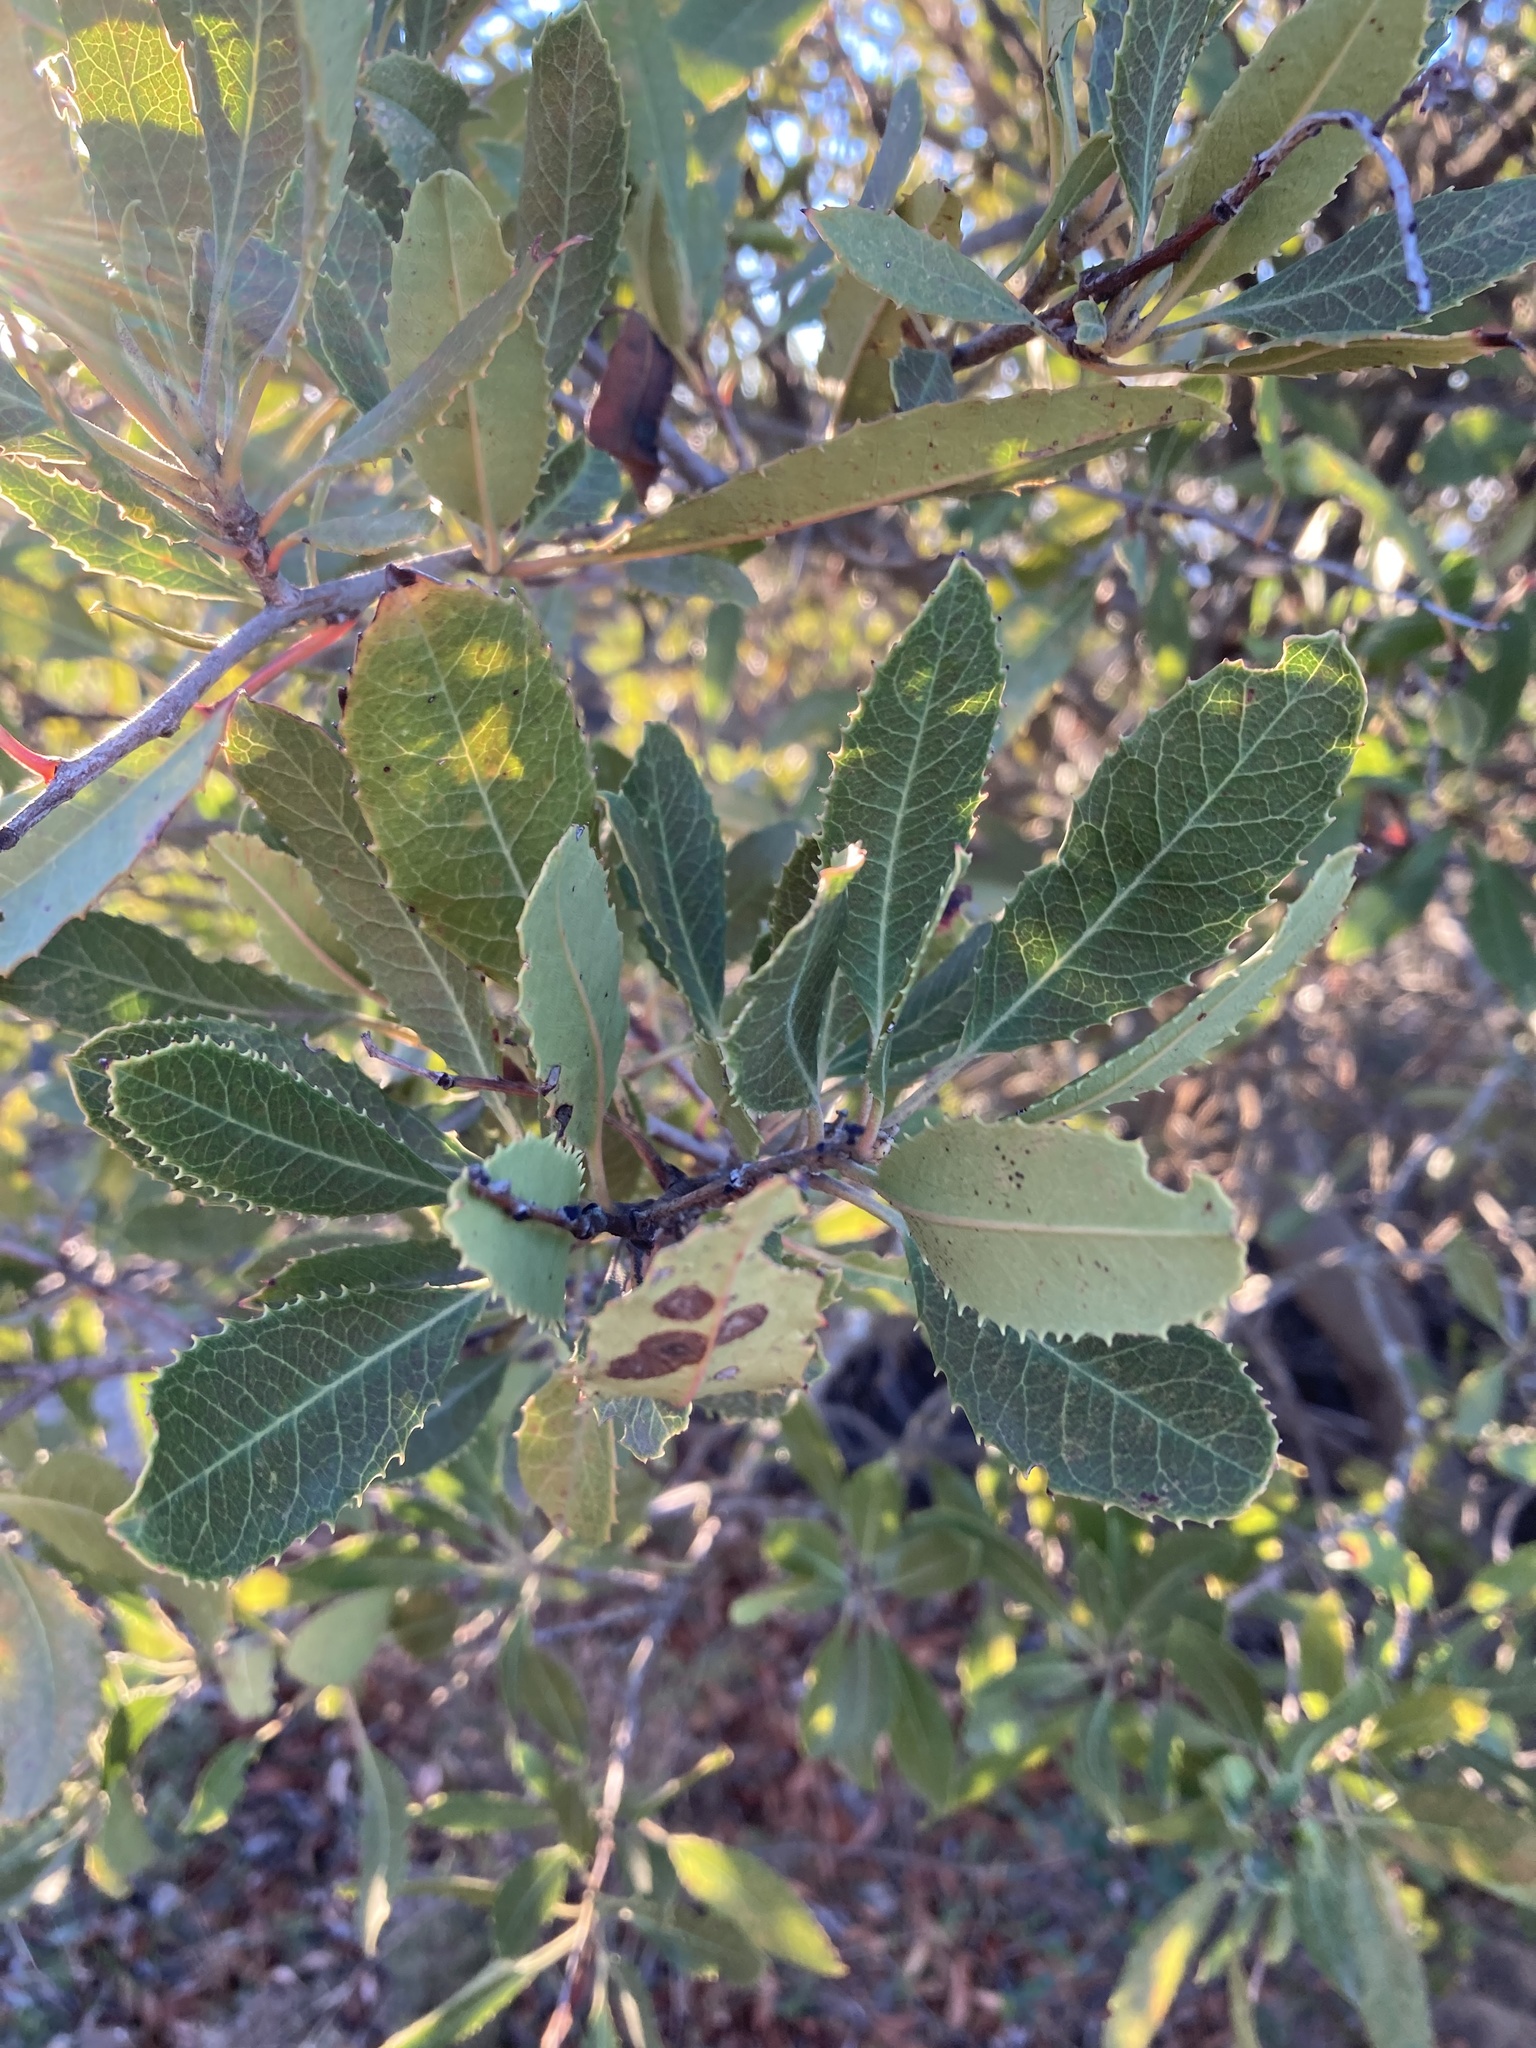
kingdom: Plantae
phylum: Tracheophyta
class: Magnoliopsida
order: Rosales
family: Rosaceae
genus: Heteromeles
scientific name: Heteromeles arbutifolia
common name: California-holly
